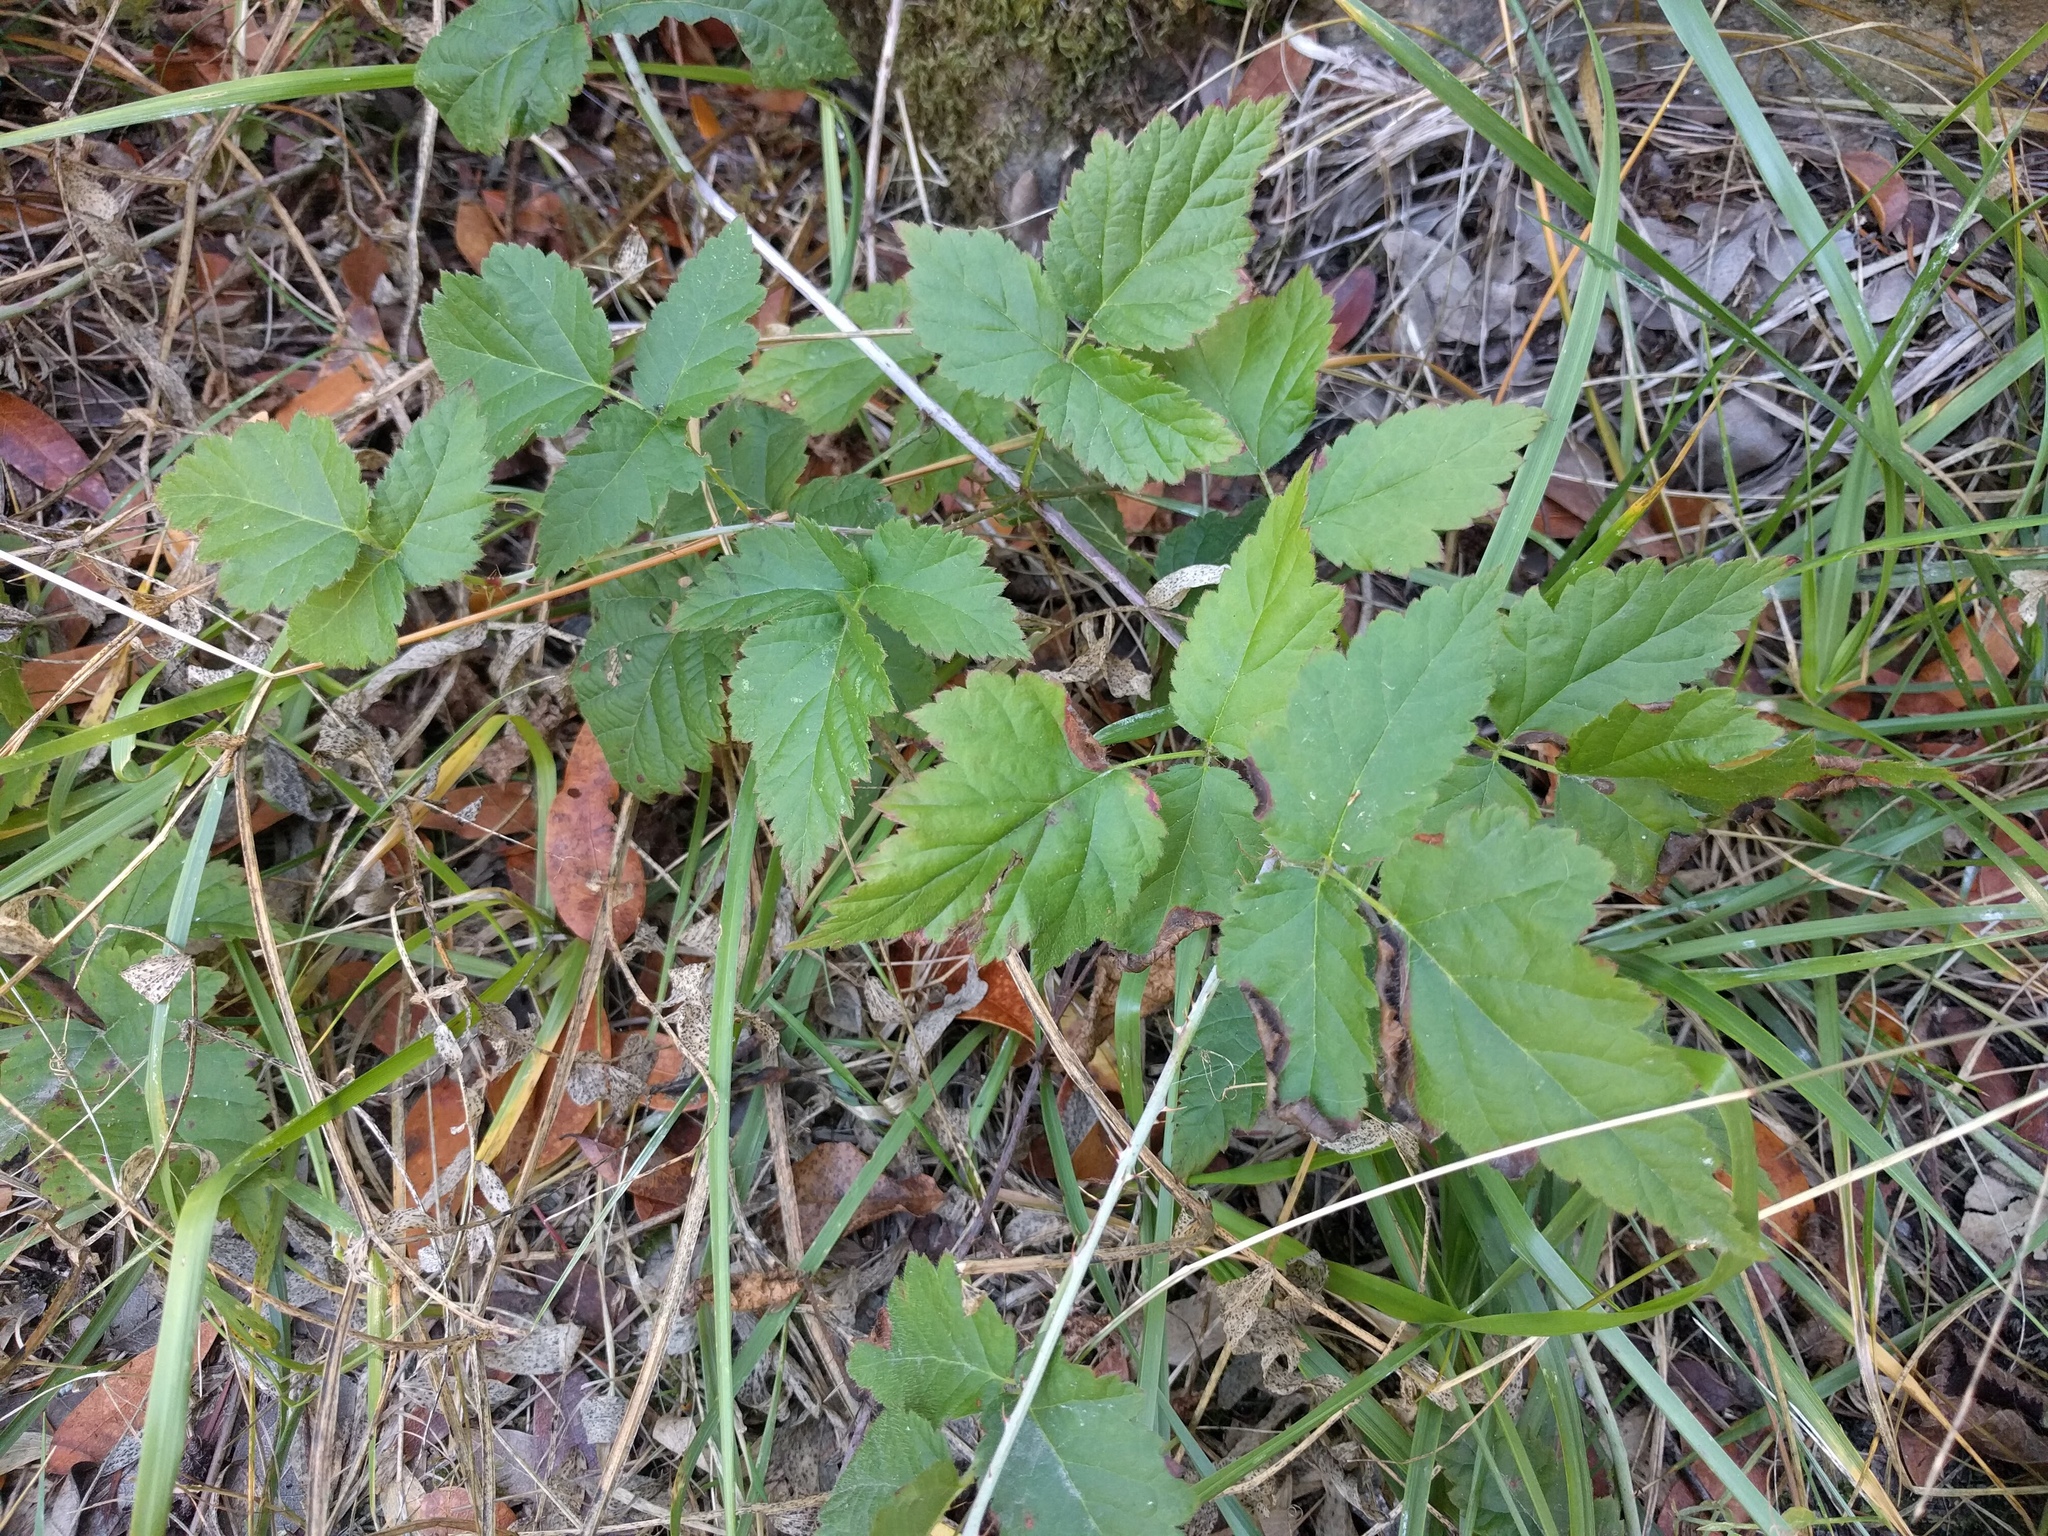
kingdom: Plantae
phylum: Tracheophyta
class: Magnoliopsida
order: Rosales
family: Rosaceae
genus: Rubus
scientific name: Rubus ursinus
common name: Pacific blackberry
